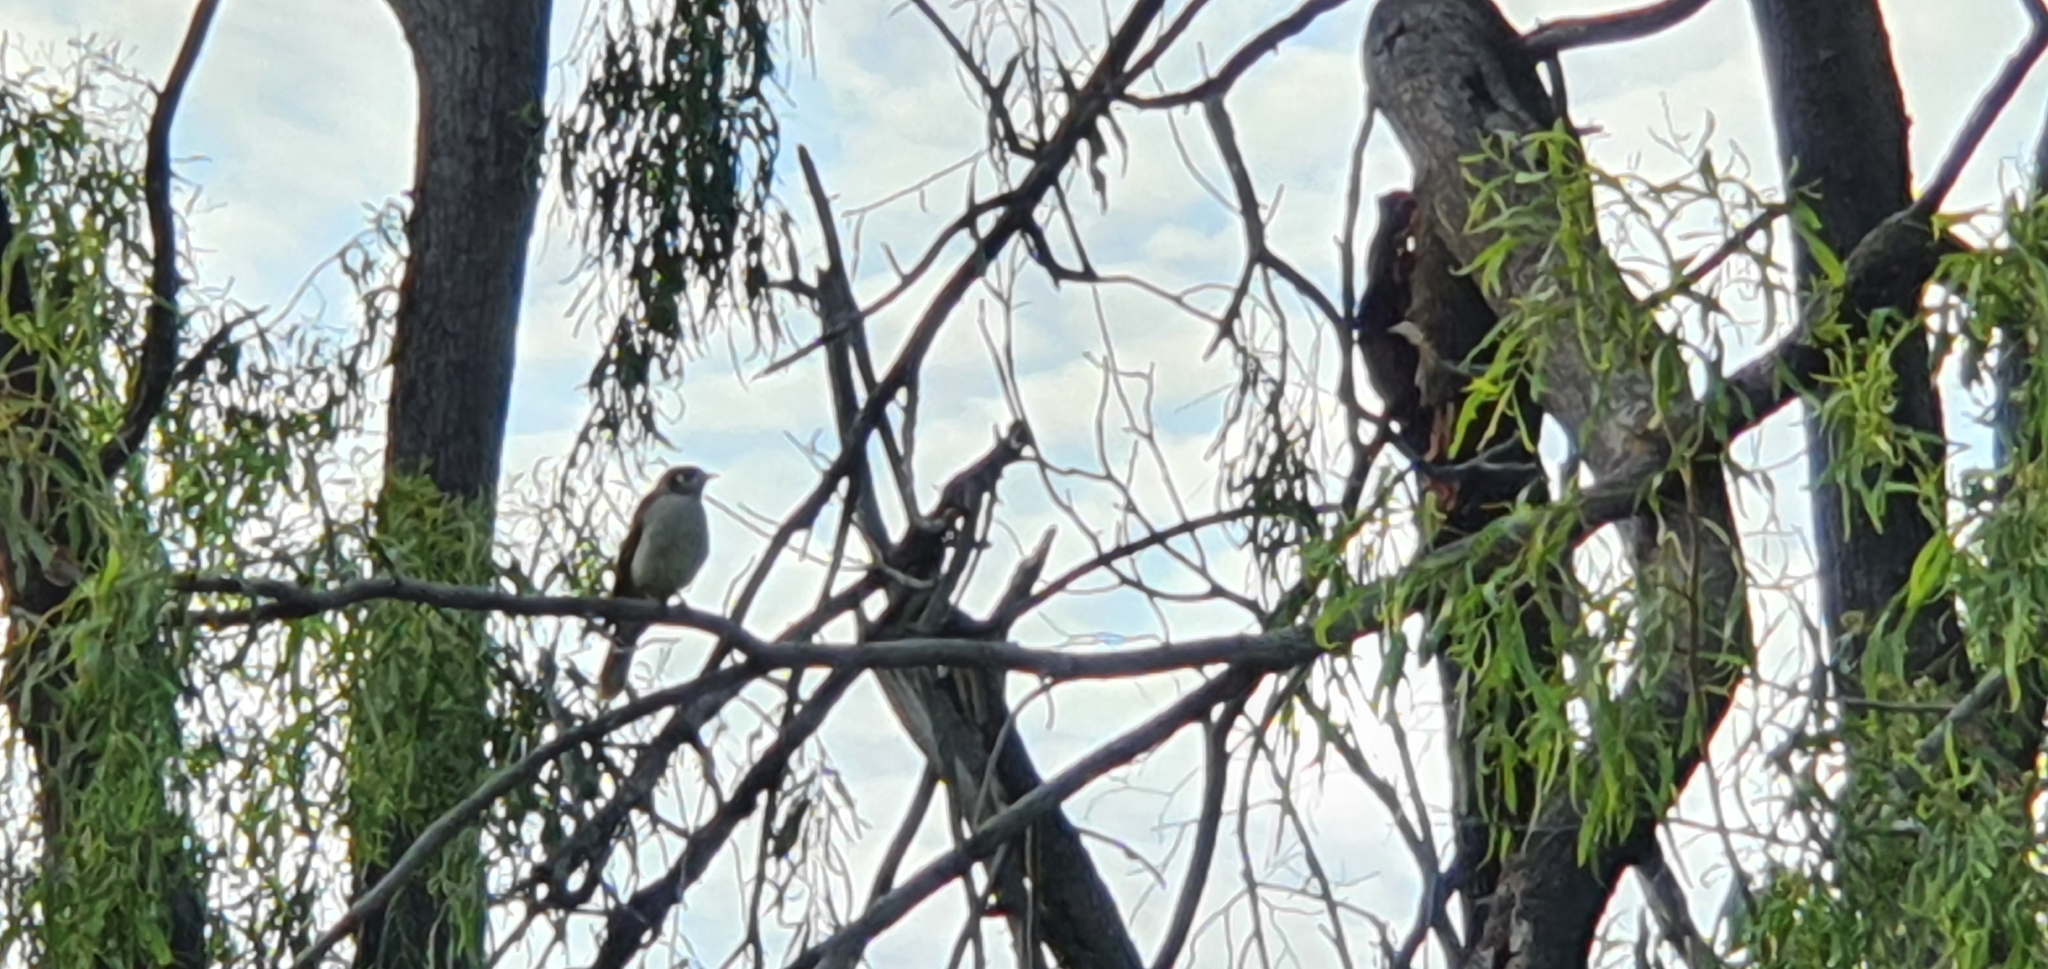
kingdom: Animalia
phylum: Chordata
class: Aves
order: Passeriformes
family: Meliphagidae
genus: Manorina
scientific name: Manorina melanocephala
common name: Noisy miner
